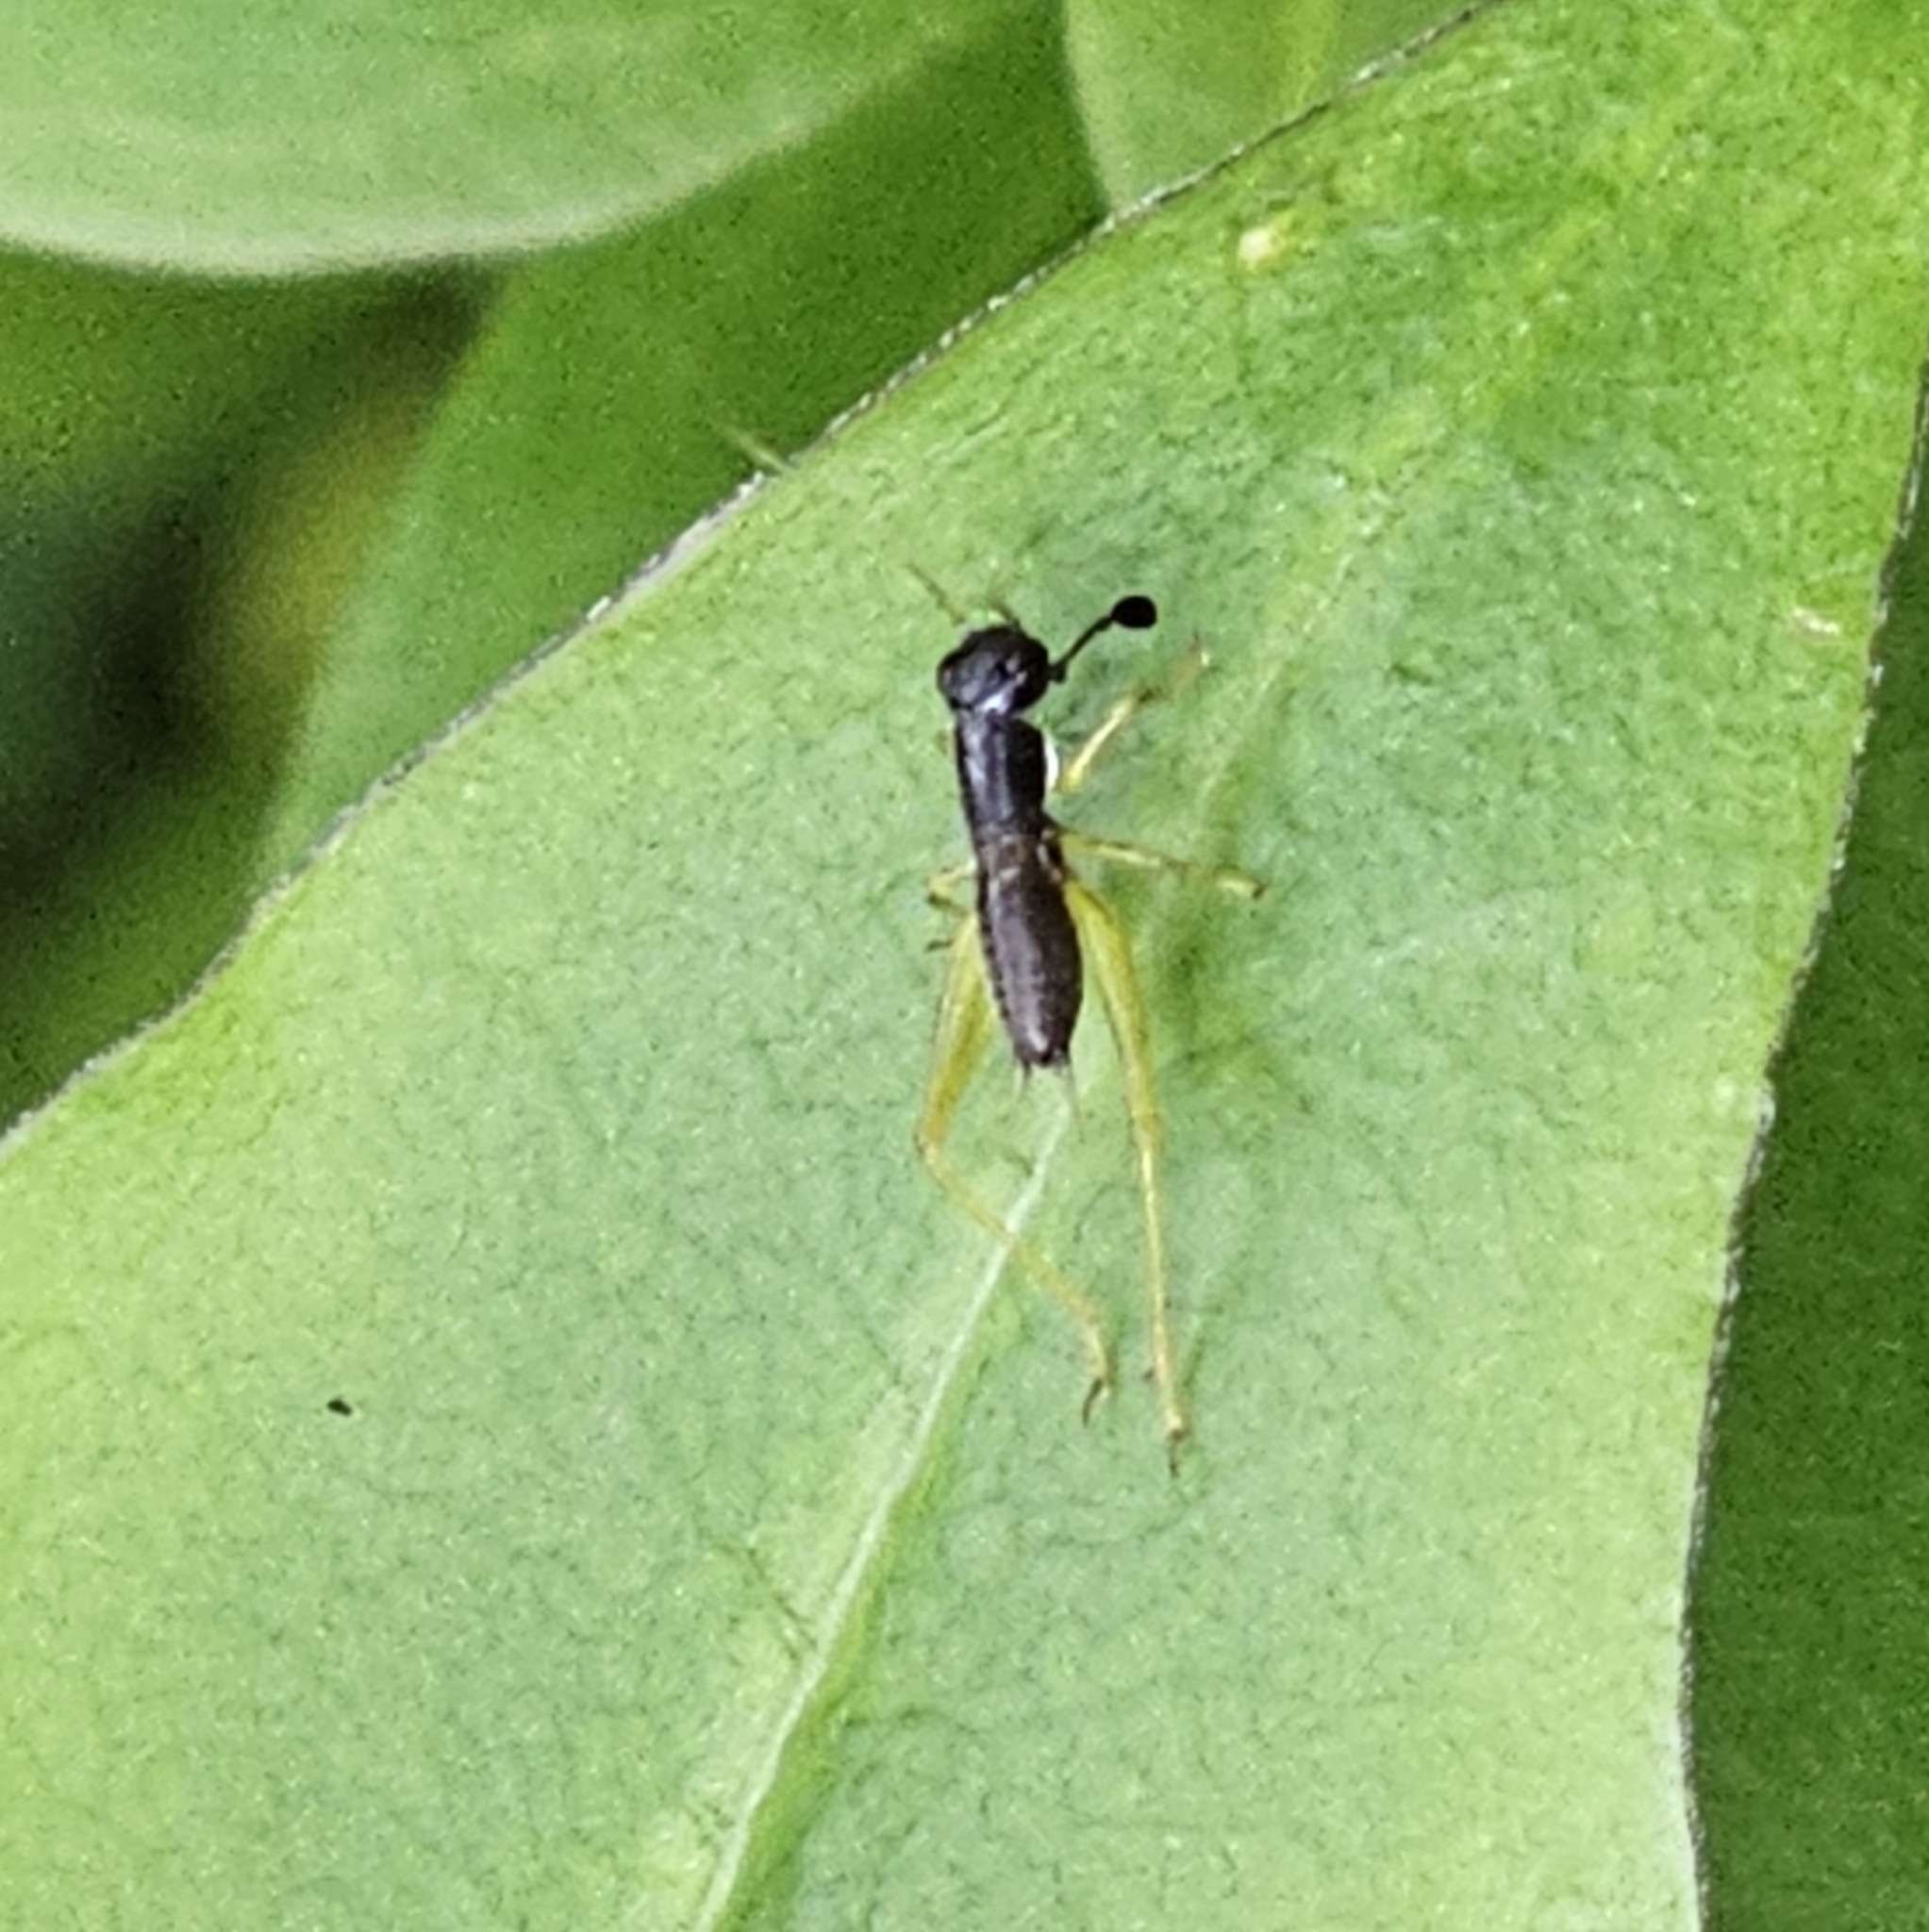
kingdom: Animalia
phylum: Arthropoda
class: Insecta
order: Orthoptera
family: Trigonidiidae
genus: Phyllopalpus
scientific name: Phyllopalpus pulchellus
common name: Handsome trig
